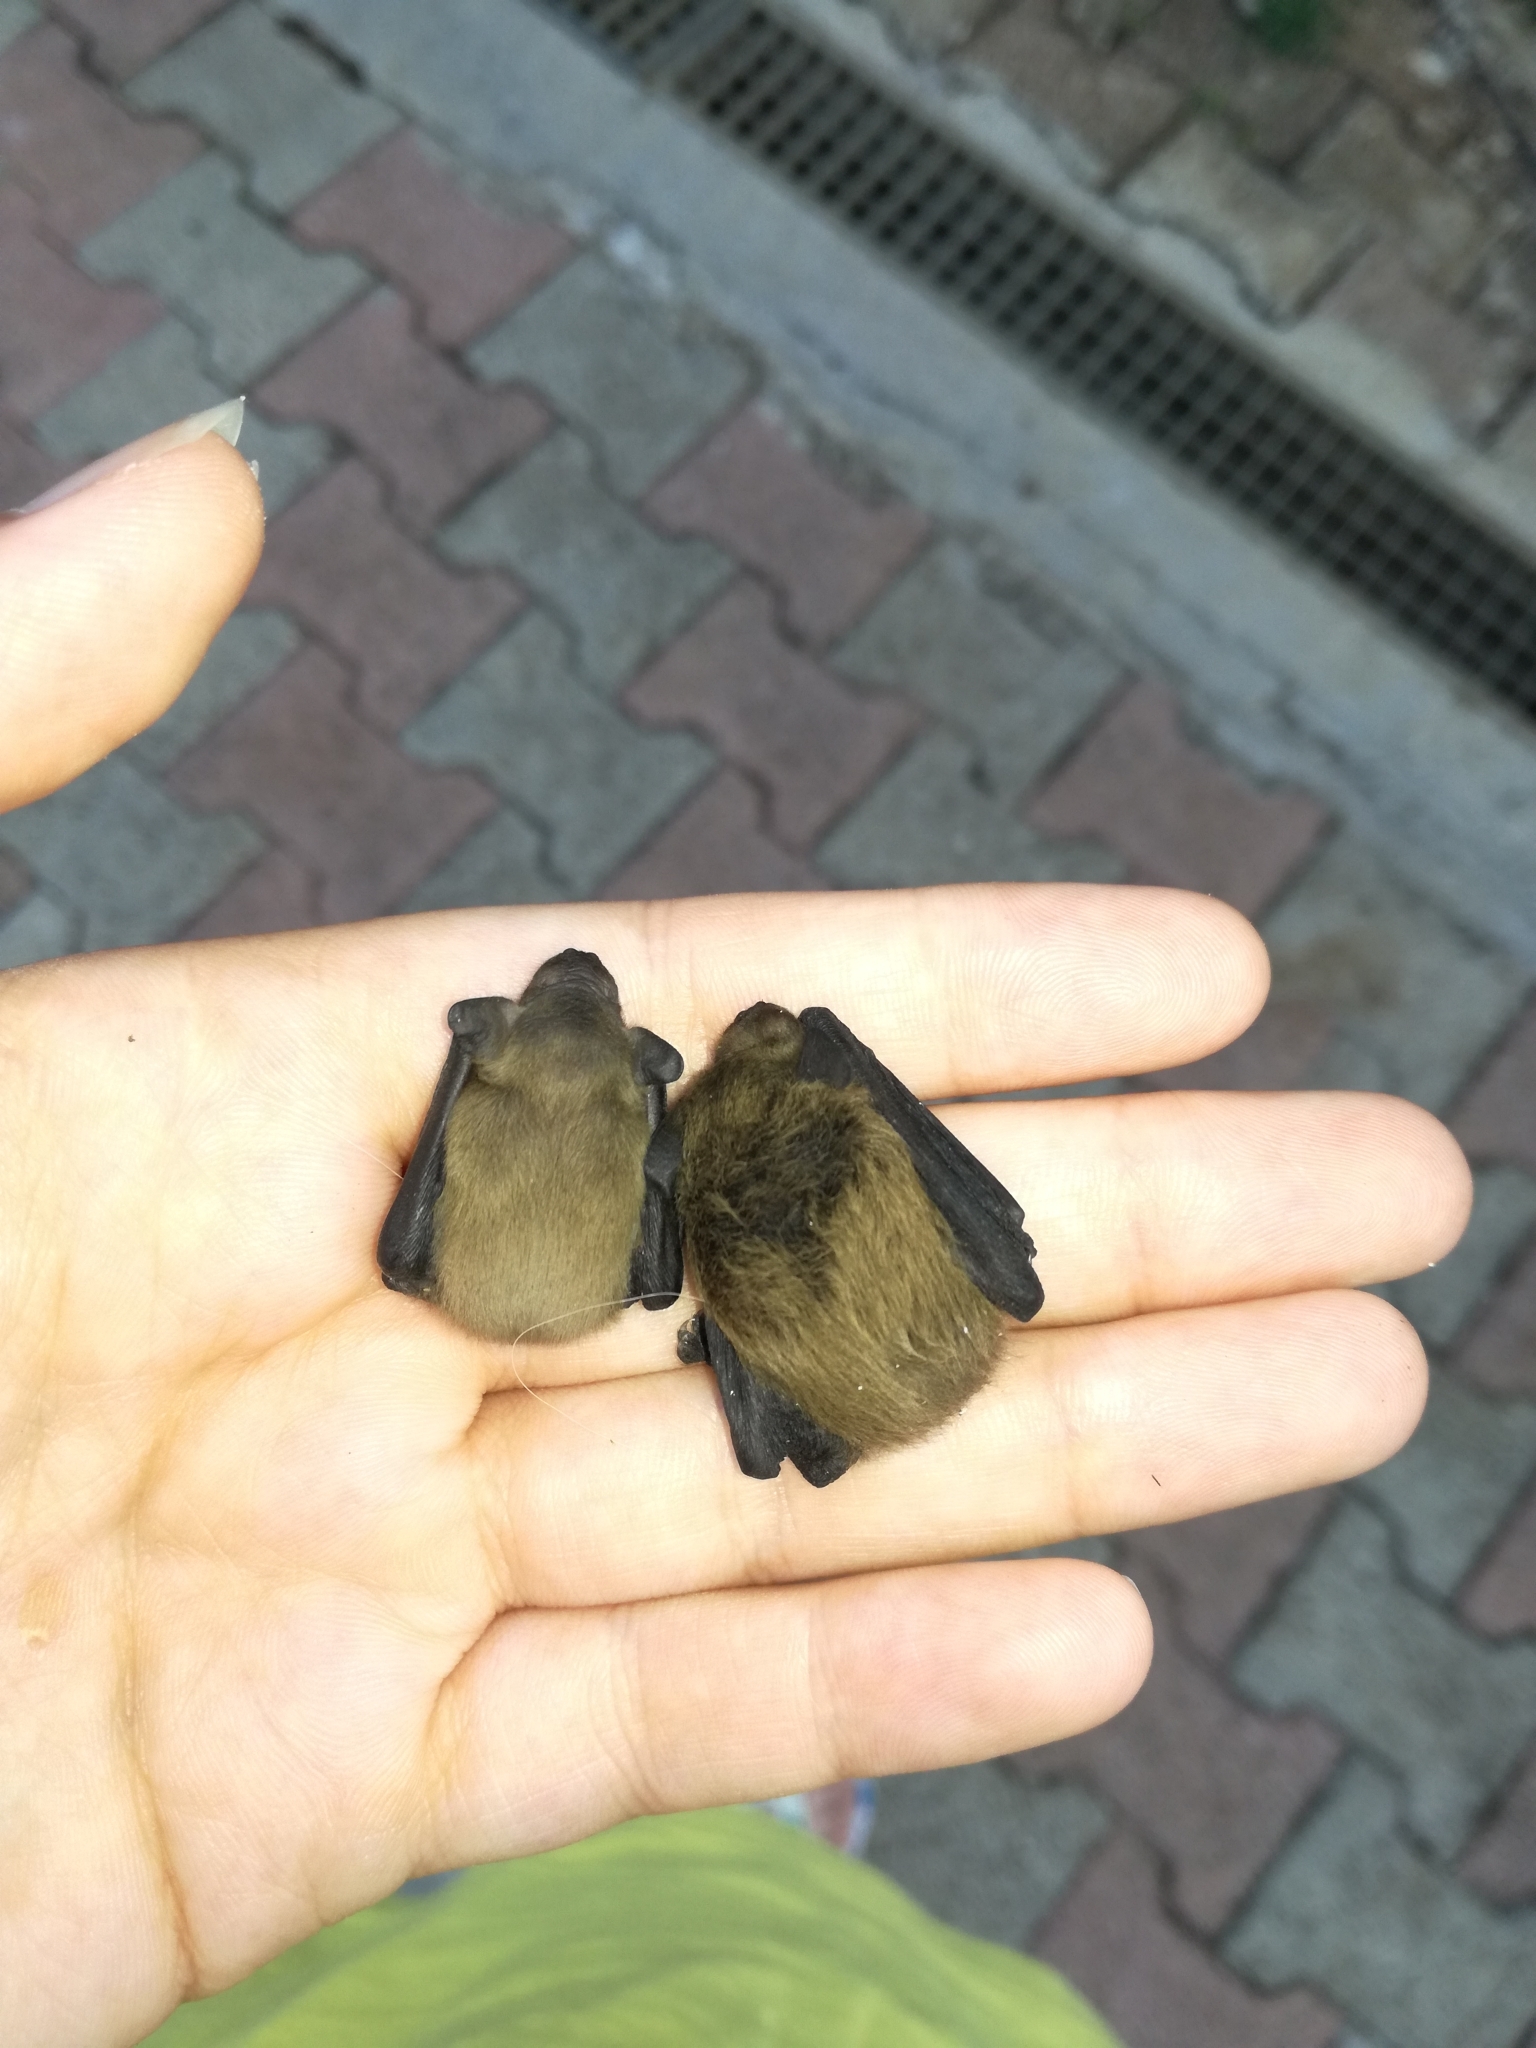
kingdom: Animalia
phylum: Chordata
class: Mammalia
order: Chiroptera
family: Vespertilionidae
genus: Pipistrellus
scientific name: Pipistrellus
